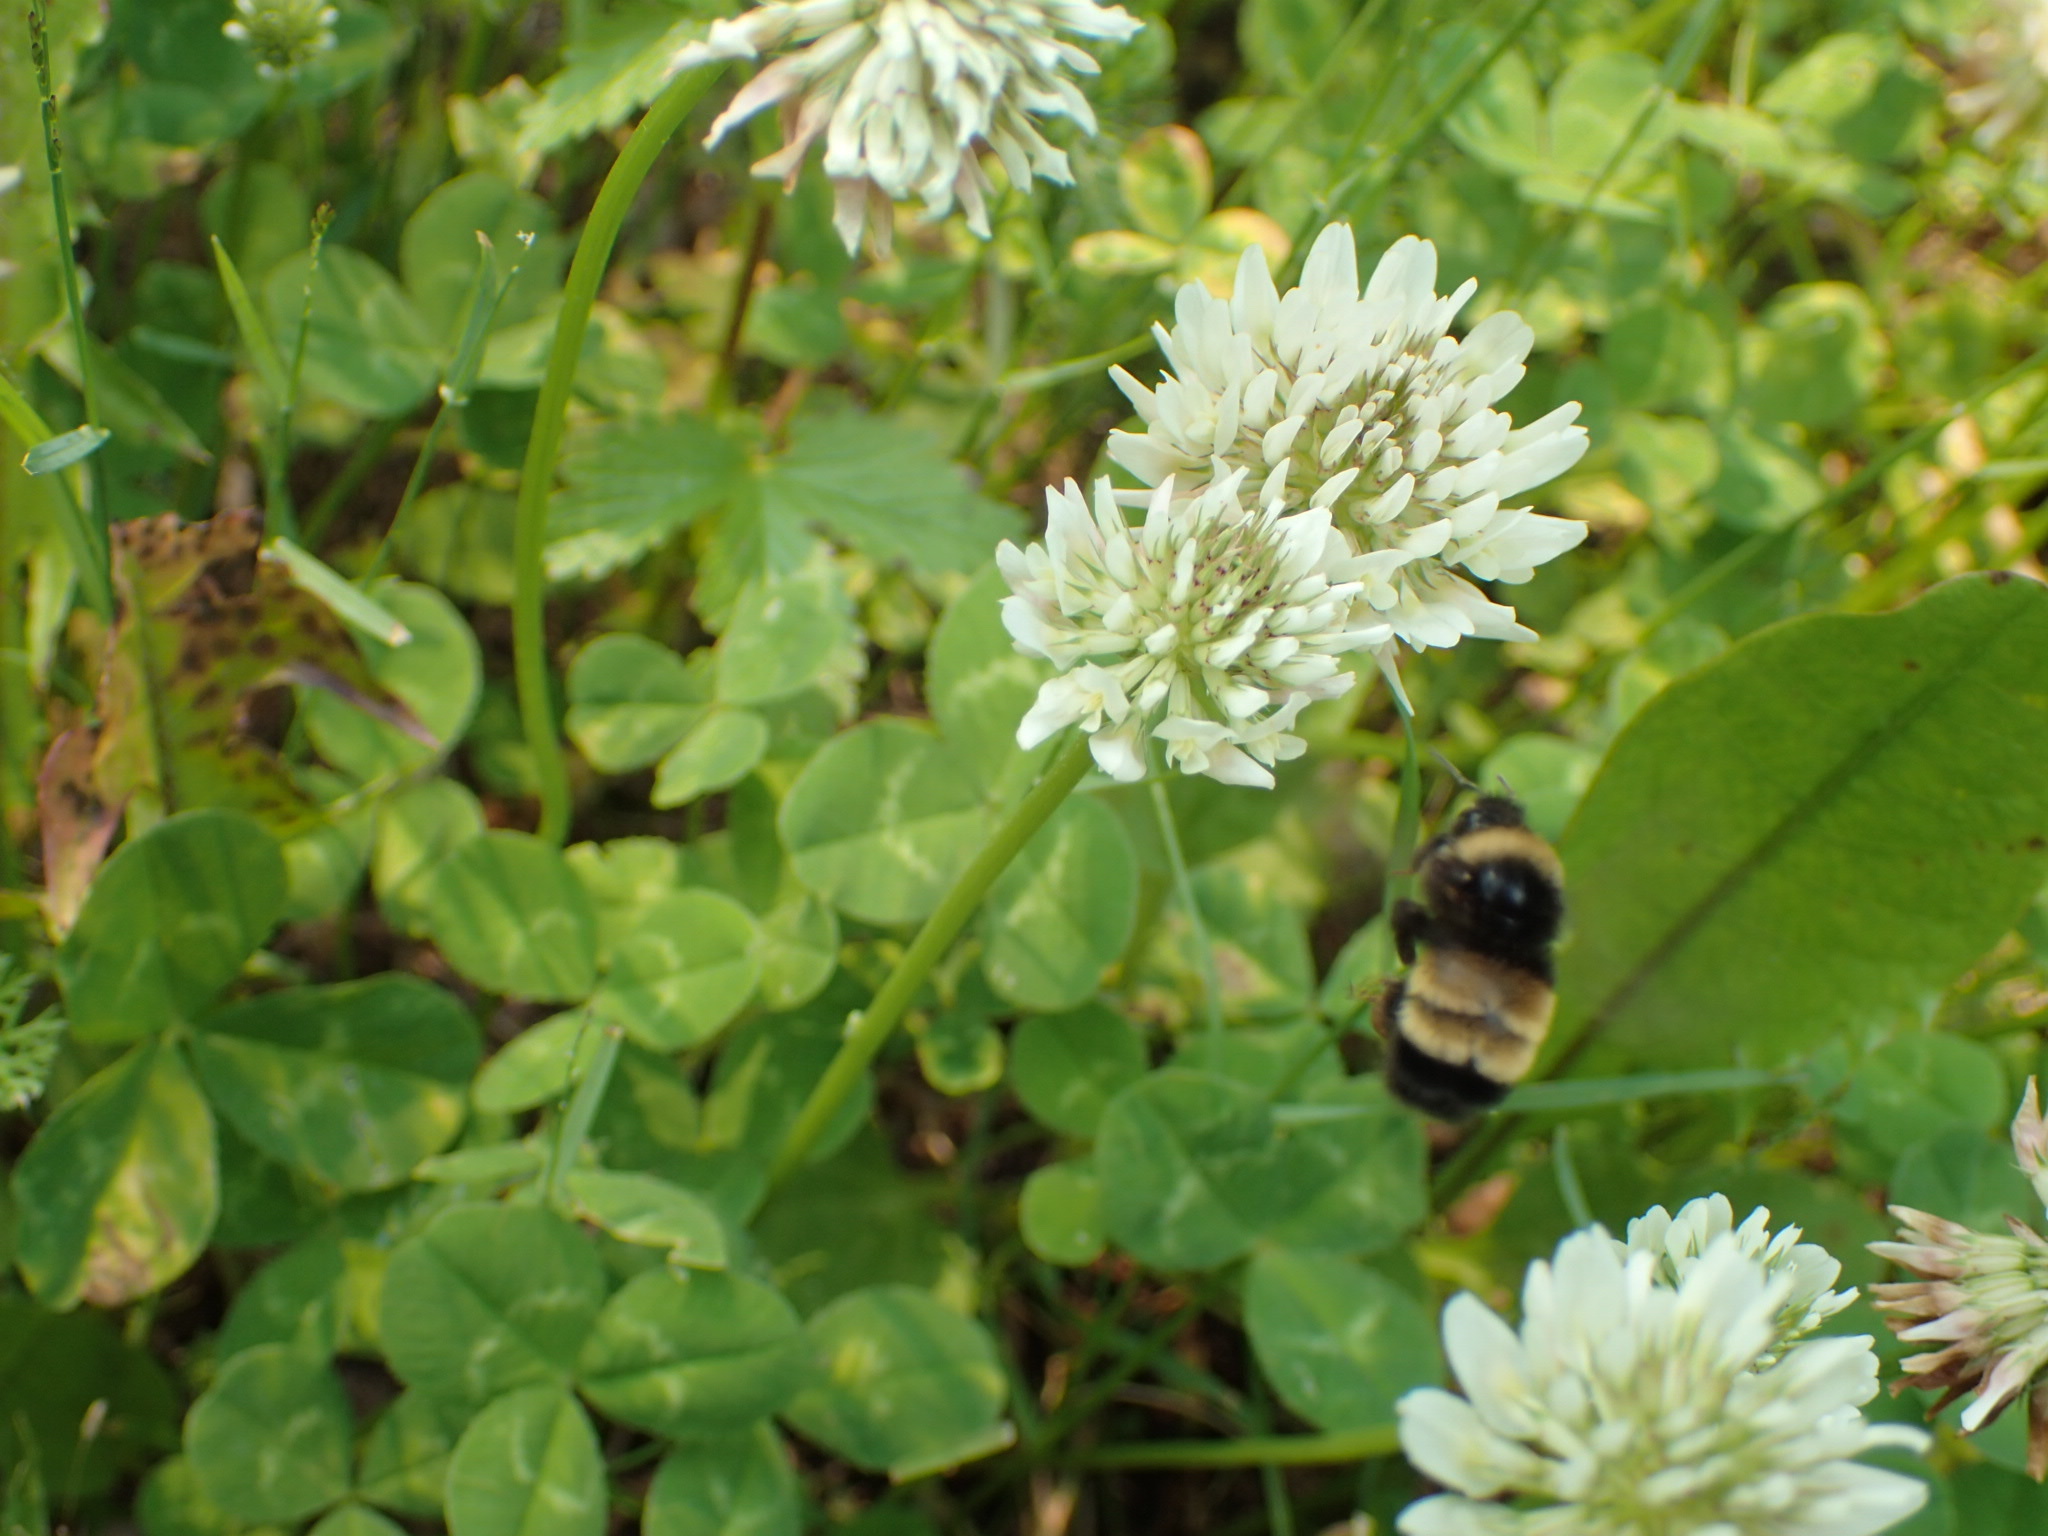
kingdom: Animalia
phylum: Arthropoda
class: Insecta
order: Hymenoptera
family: Apidae
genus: Bombus
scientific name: Bombus terricola
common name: Yellow-banded bumble bee
